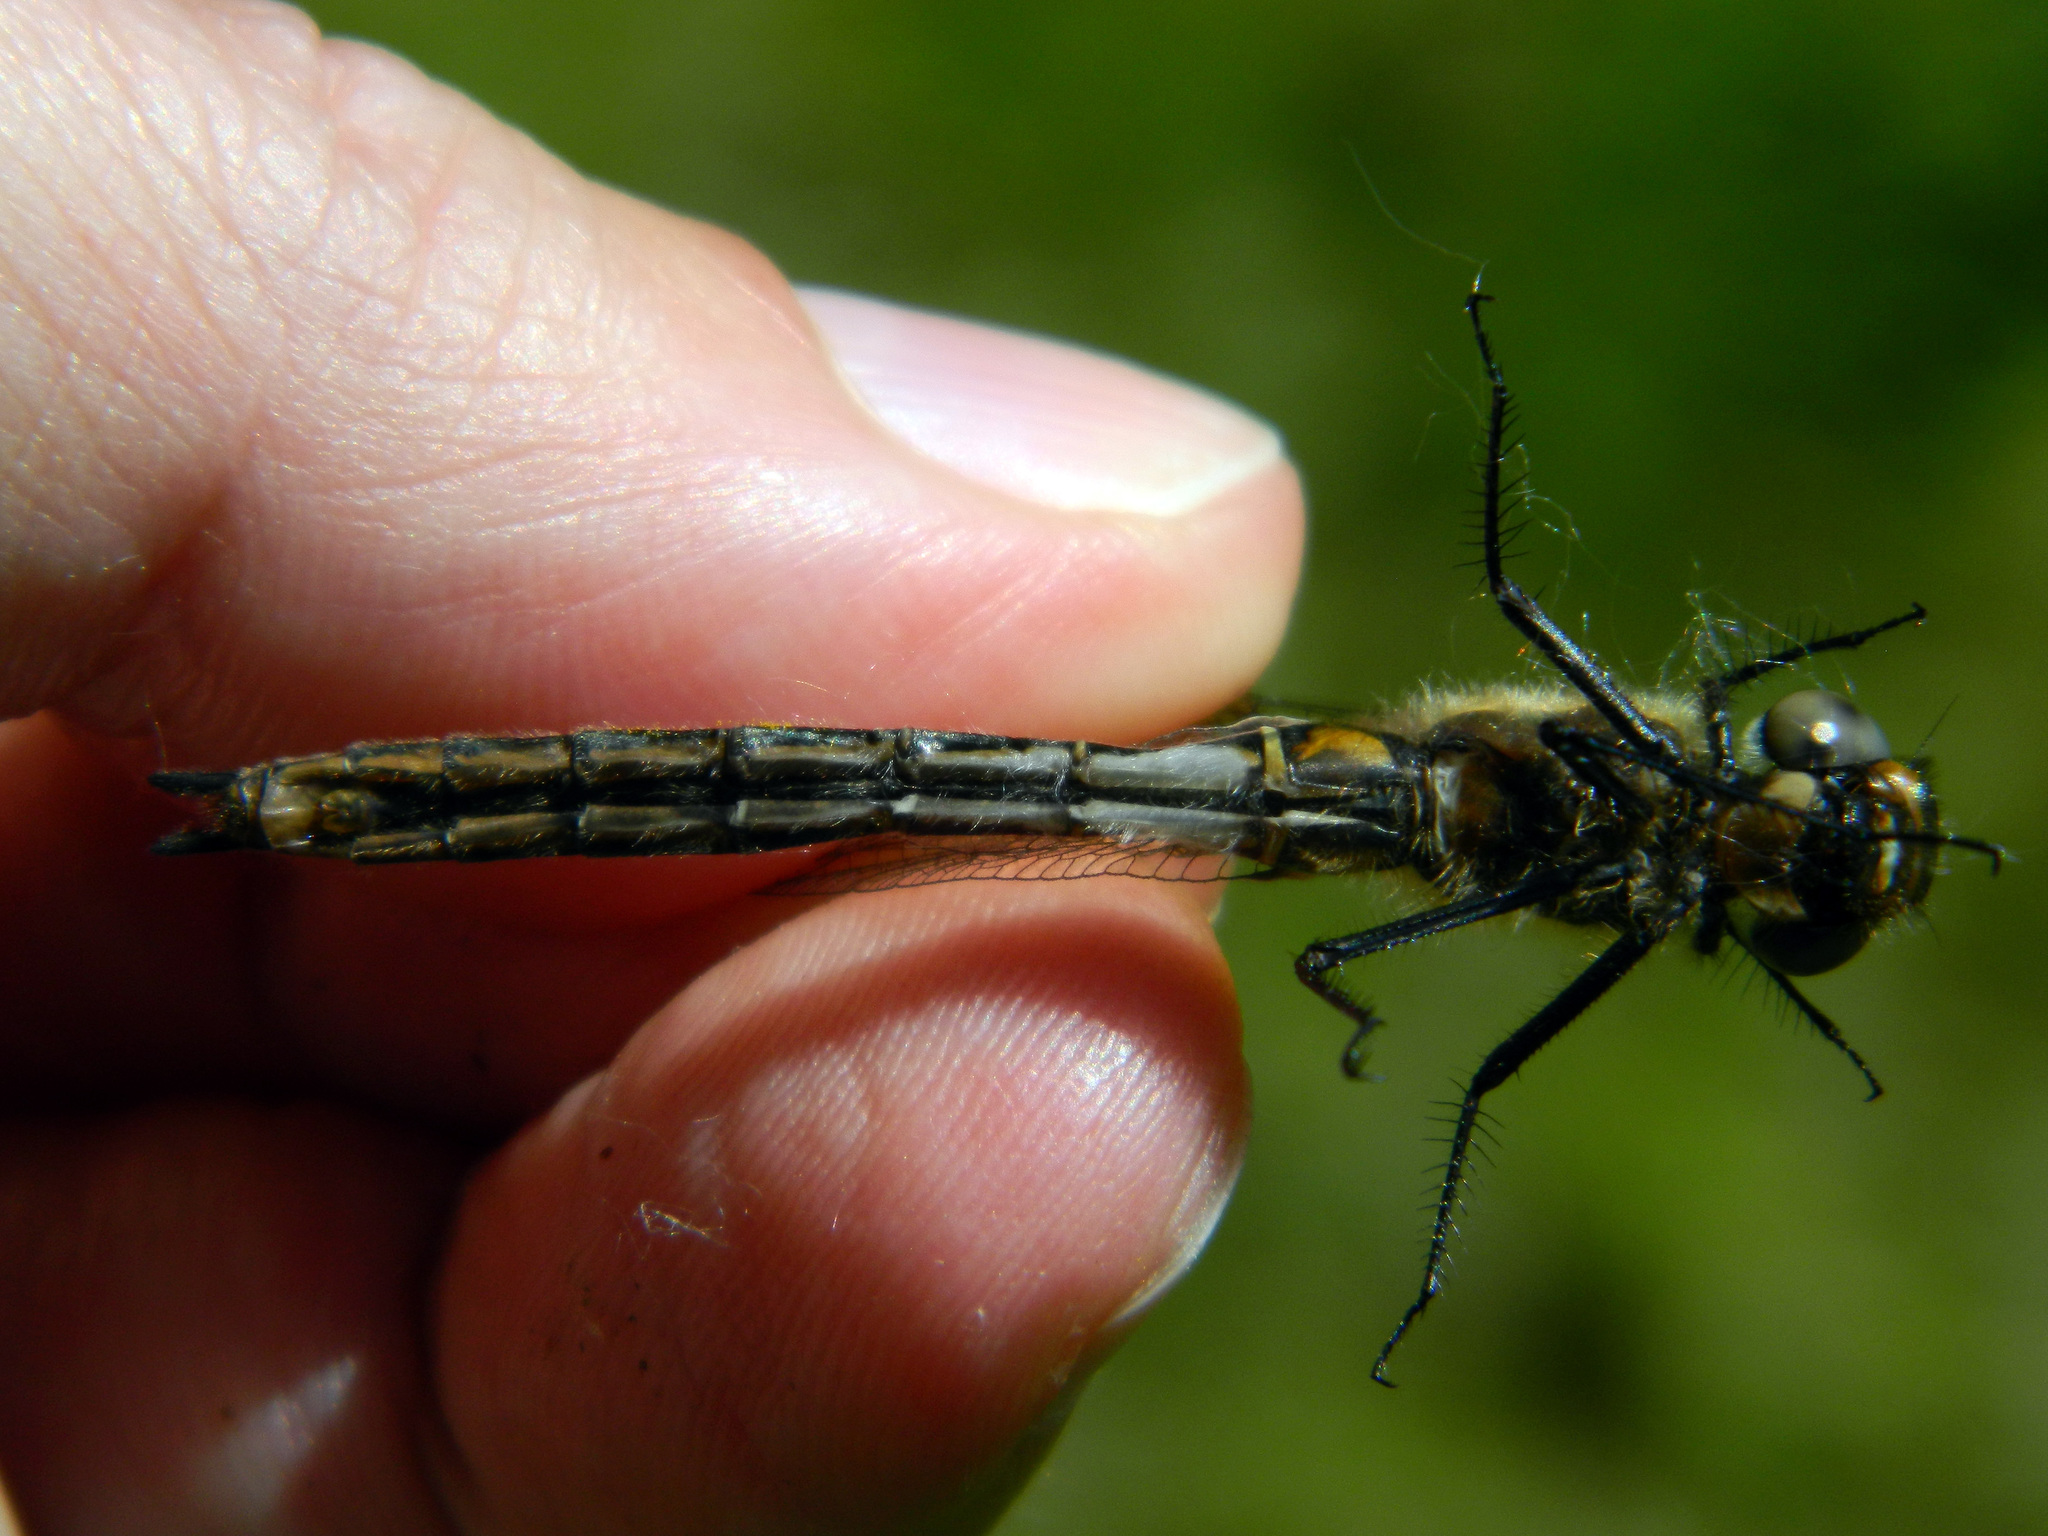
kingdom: Animalia
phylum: Arthropoda
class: Insecta
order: Odonata
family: Corduliidae
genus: Cordulia
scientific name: Cordulia shurtleffii
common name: American emerald
